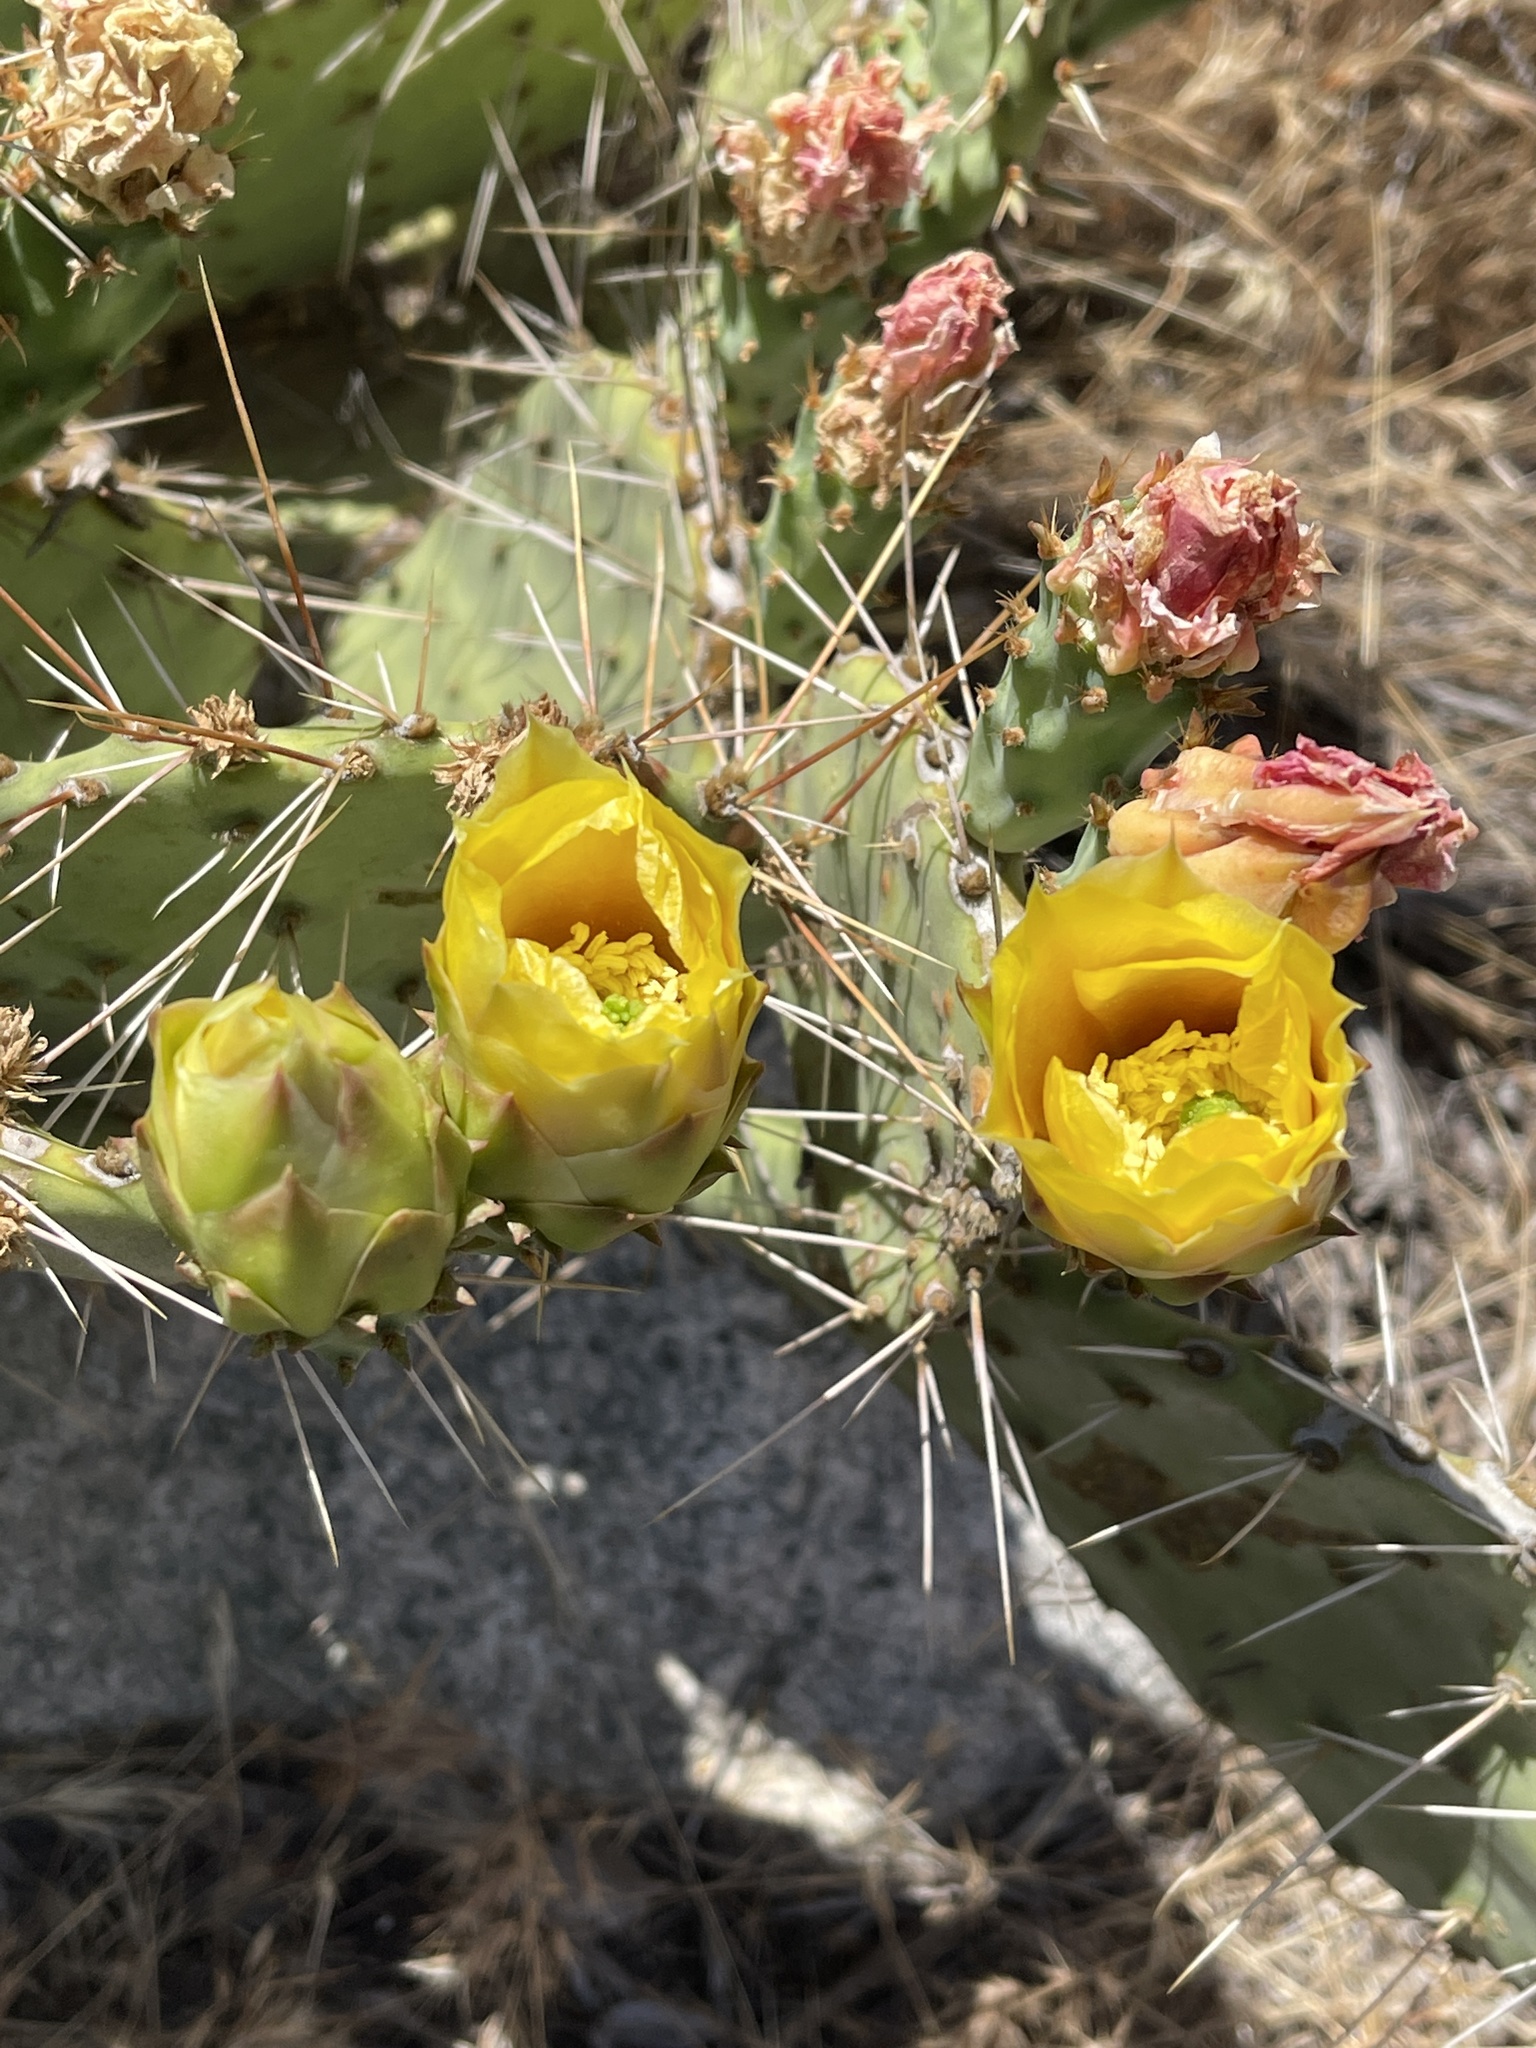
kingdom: Plantae
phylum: Tracheophyta
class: Magnoliopsida
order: Caryophyllales
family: Cactaceae
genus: Opuntia
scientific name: Opuntia phaeacantha
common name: New mexico prickly-pear
